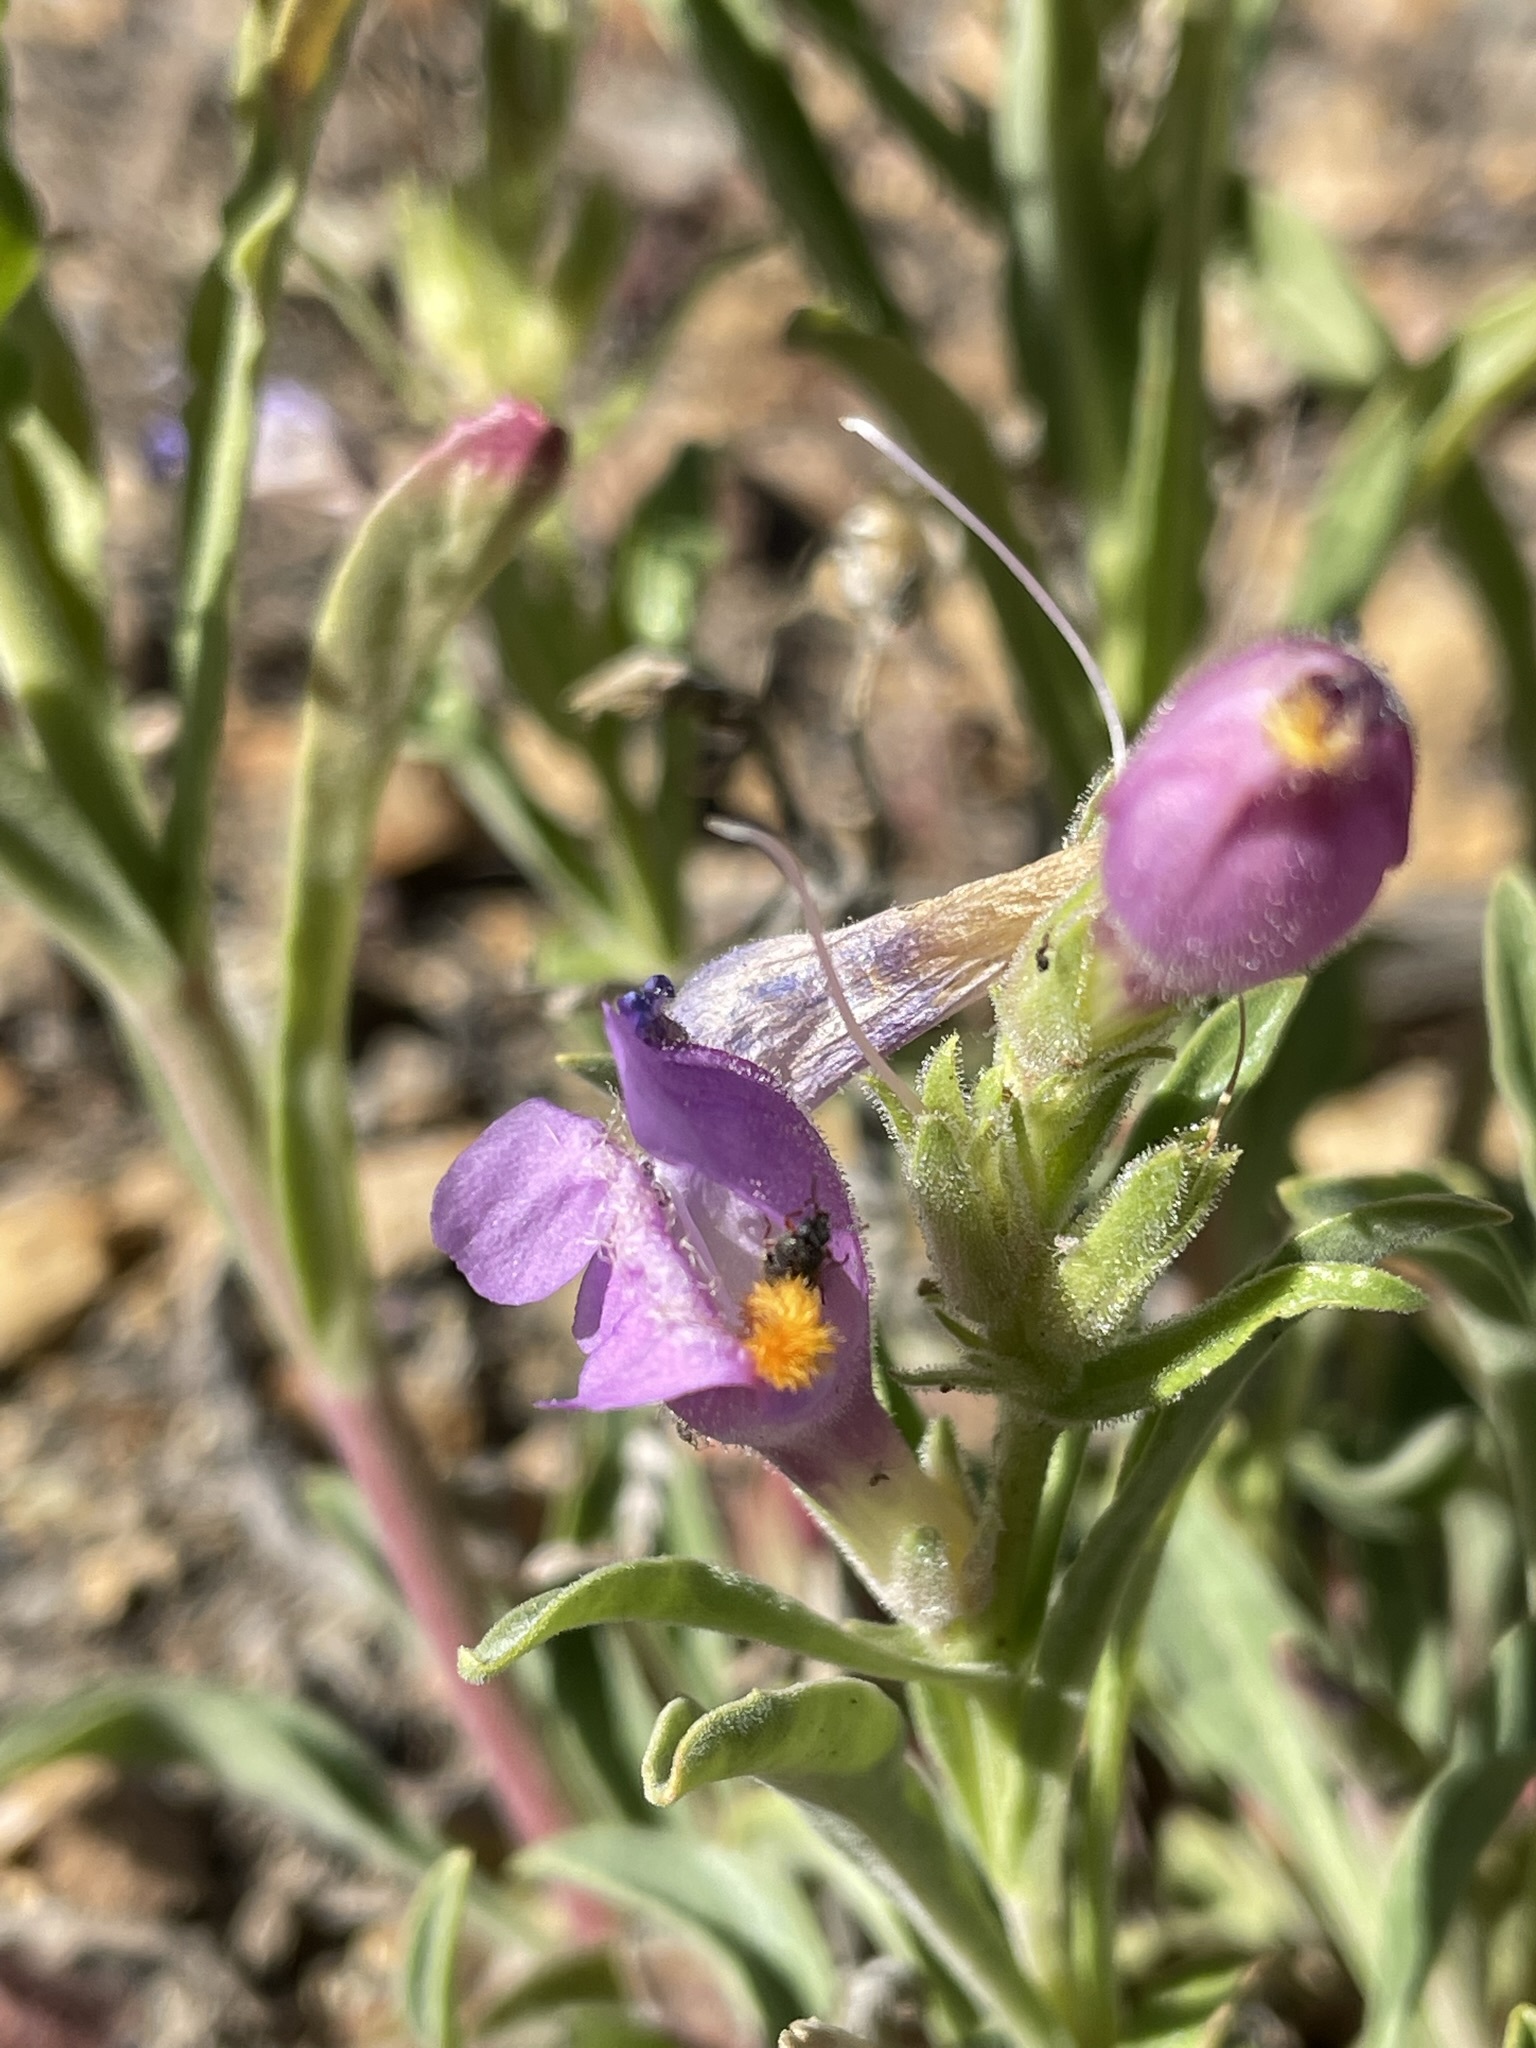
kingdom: Plantae
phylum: Tracheophyta
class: Magnoliopsida
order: Lamiales
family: Plantaginaceae
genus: Penstemon
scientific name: Penstemon janishiae
